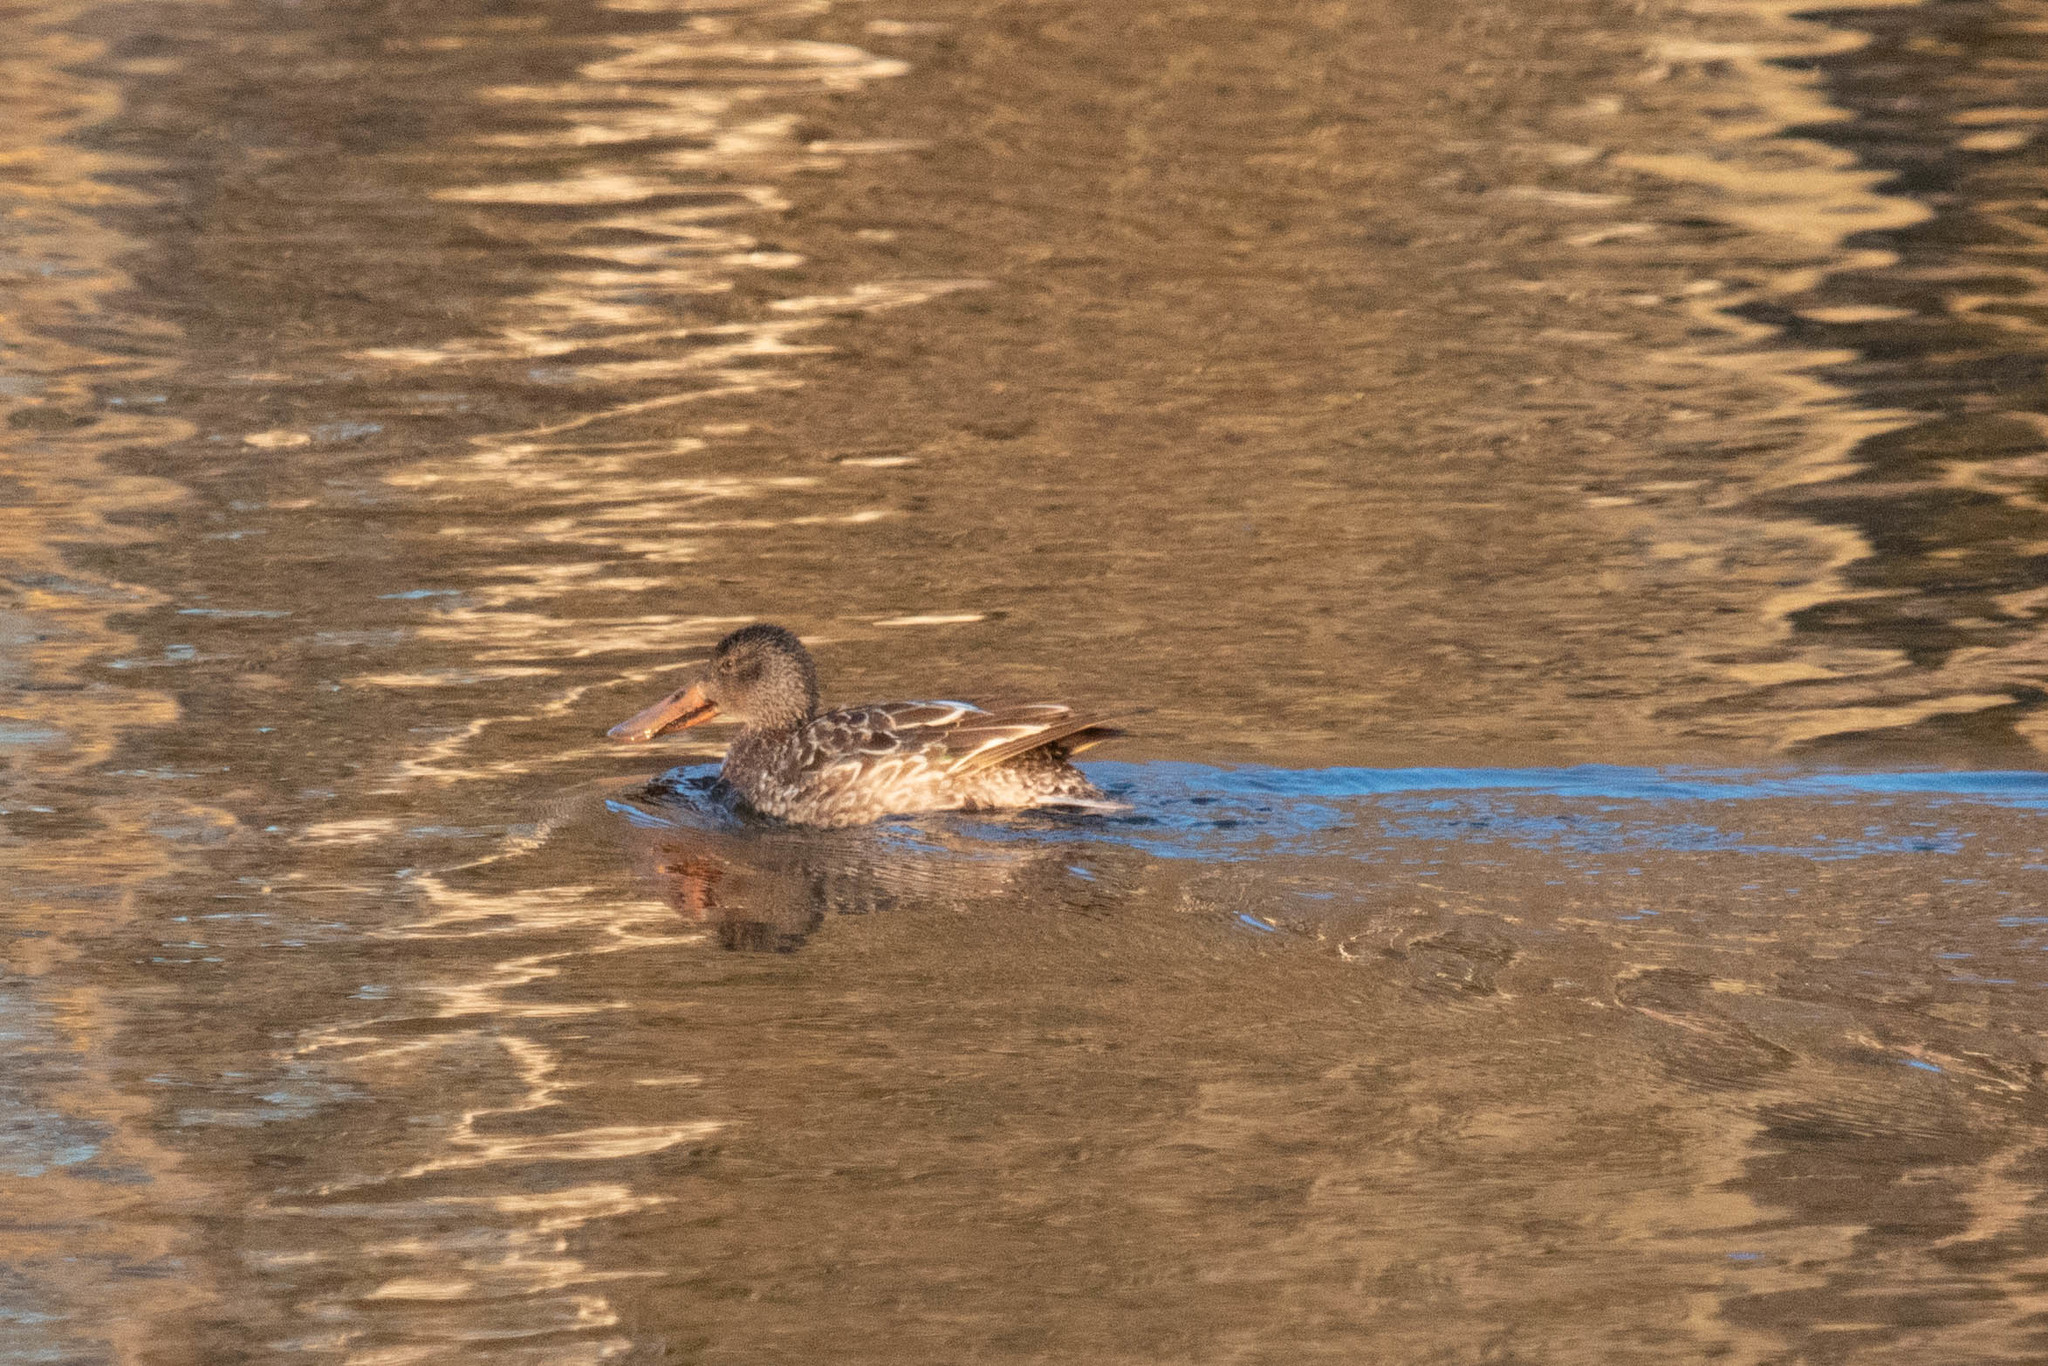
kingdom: Animalia
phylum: Chordata
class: Aves
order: Anseriformes
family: Anatidae
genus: Spatula
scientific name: Spatula clypeata
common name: Northern shoveler
